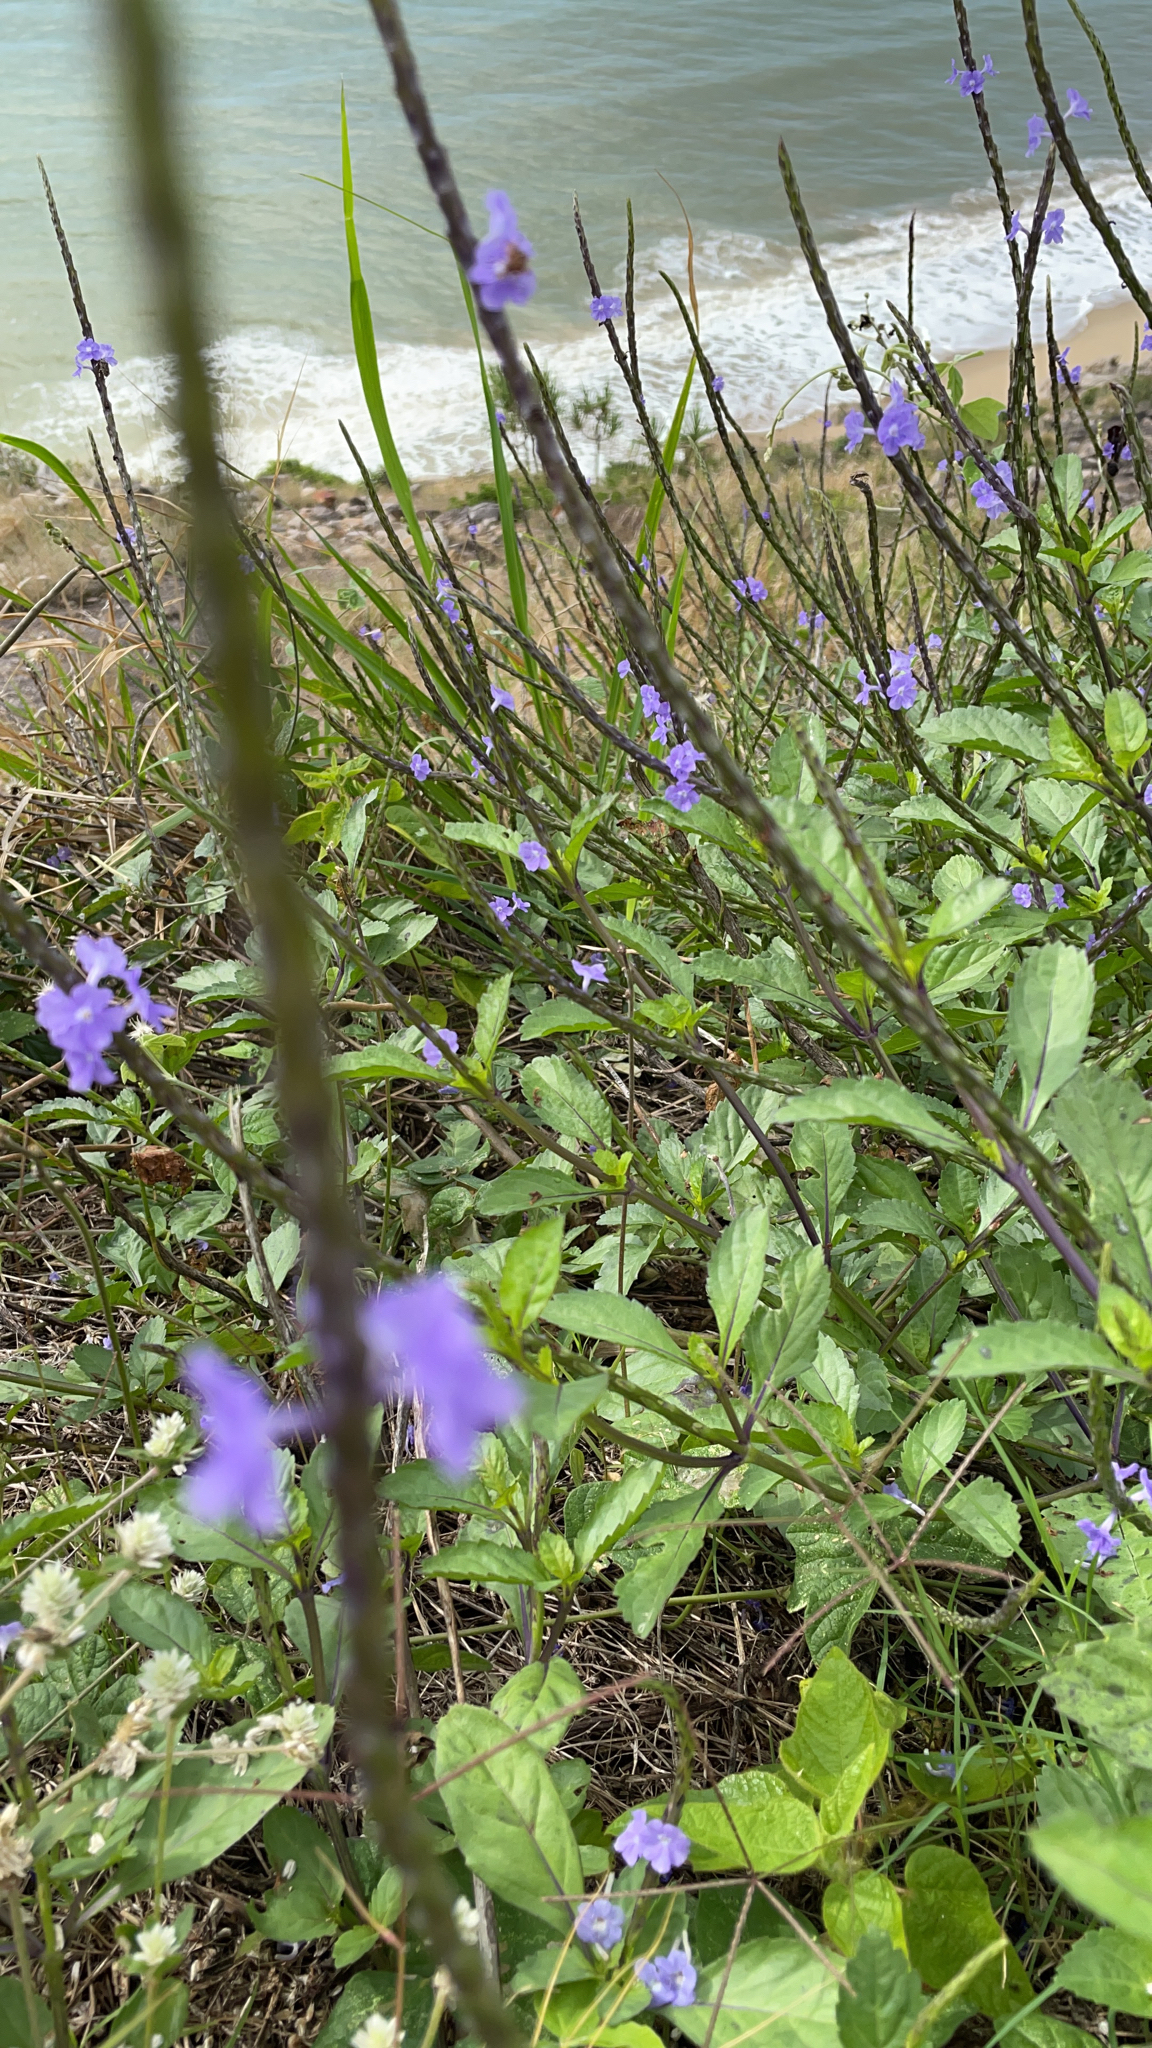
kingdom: Plantae
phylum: Tracheophyta
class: Magnoliopsida
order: Lamiales
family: Verbenaceae
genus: Stachytarpheta
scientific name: Stachytarpheta jamaicensis
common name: Light-blue snakeweed
